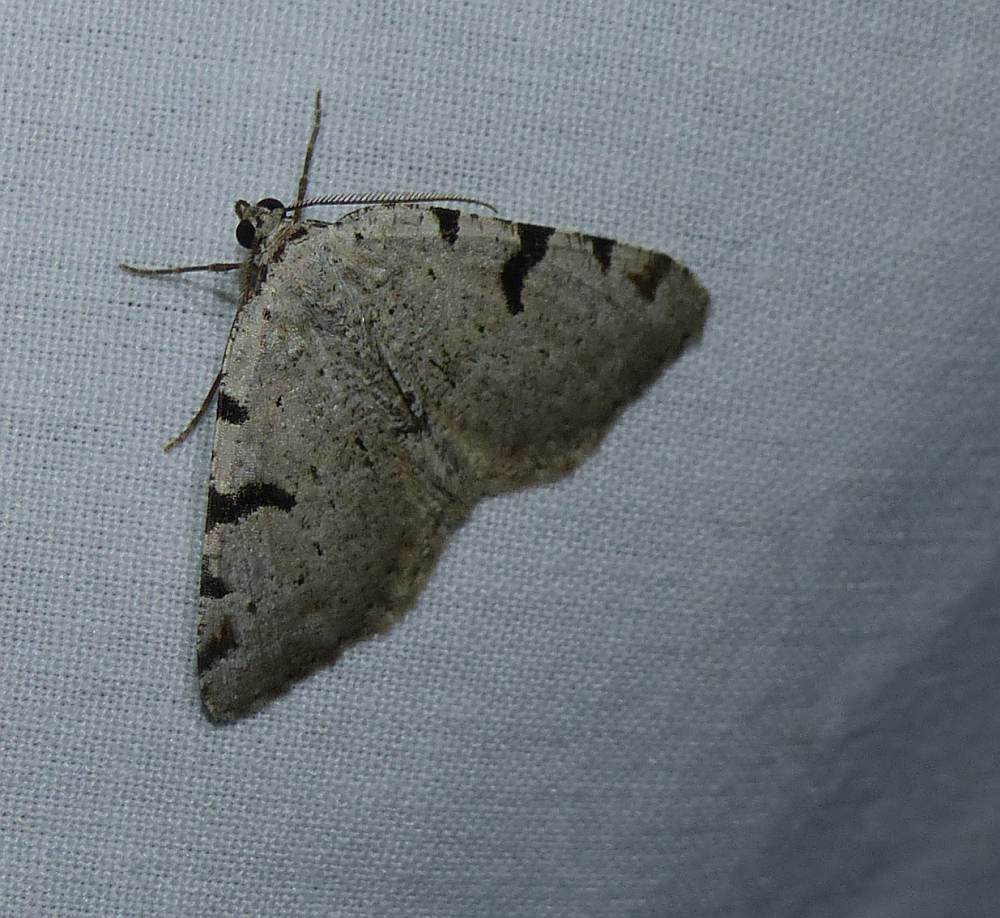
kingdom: Animalia
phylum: Arthropoda
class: Insecta
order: Lepidoptera
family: Geometridae
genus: Macaria
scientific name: Macaria subcessaria
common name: Barred angle
